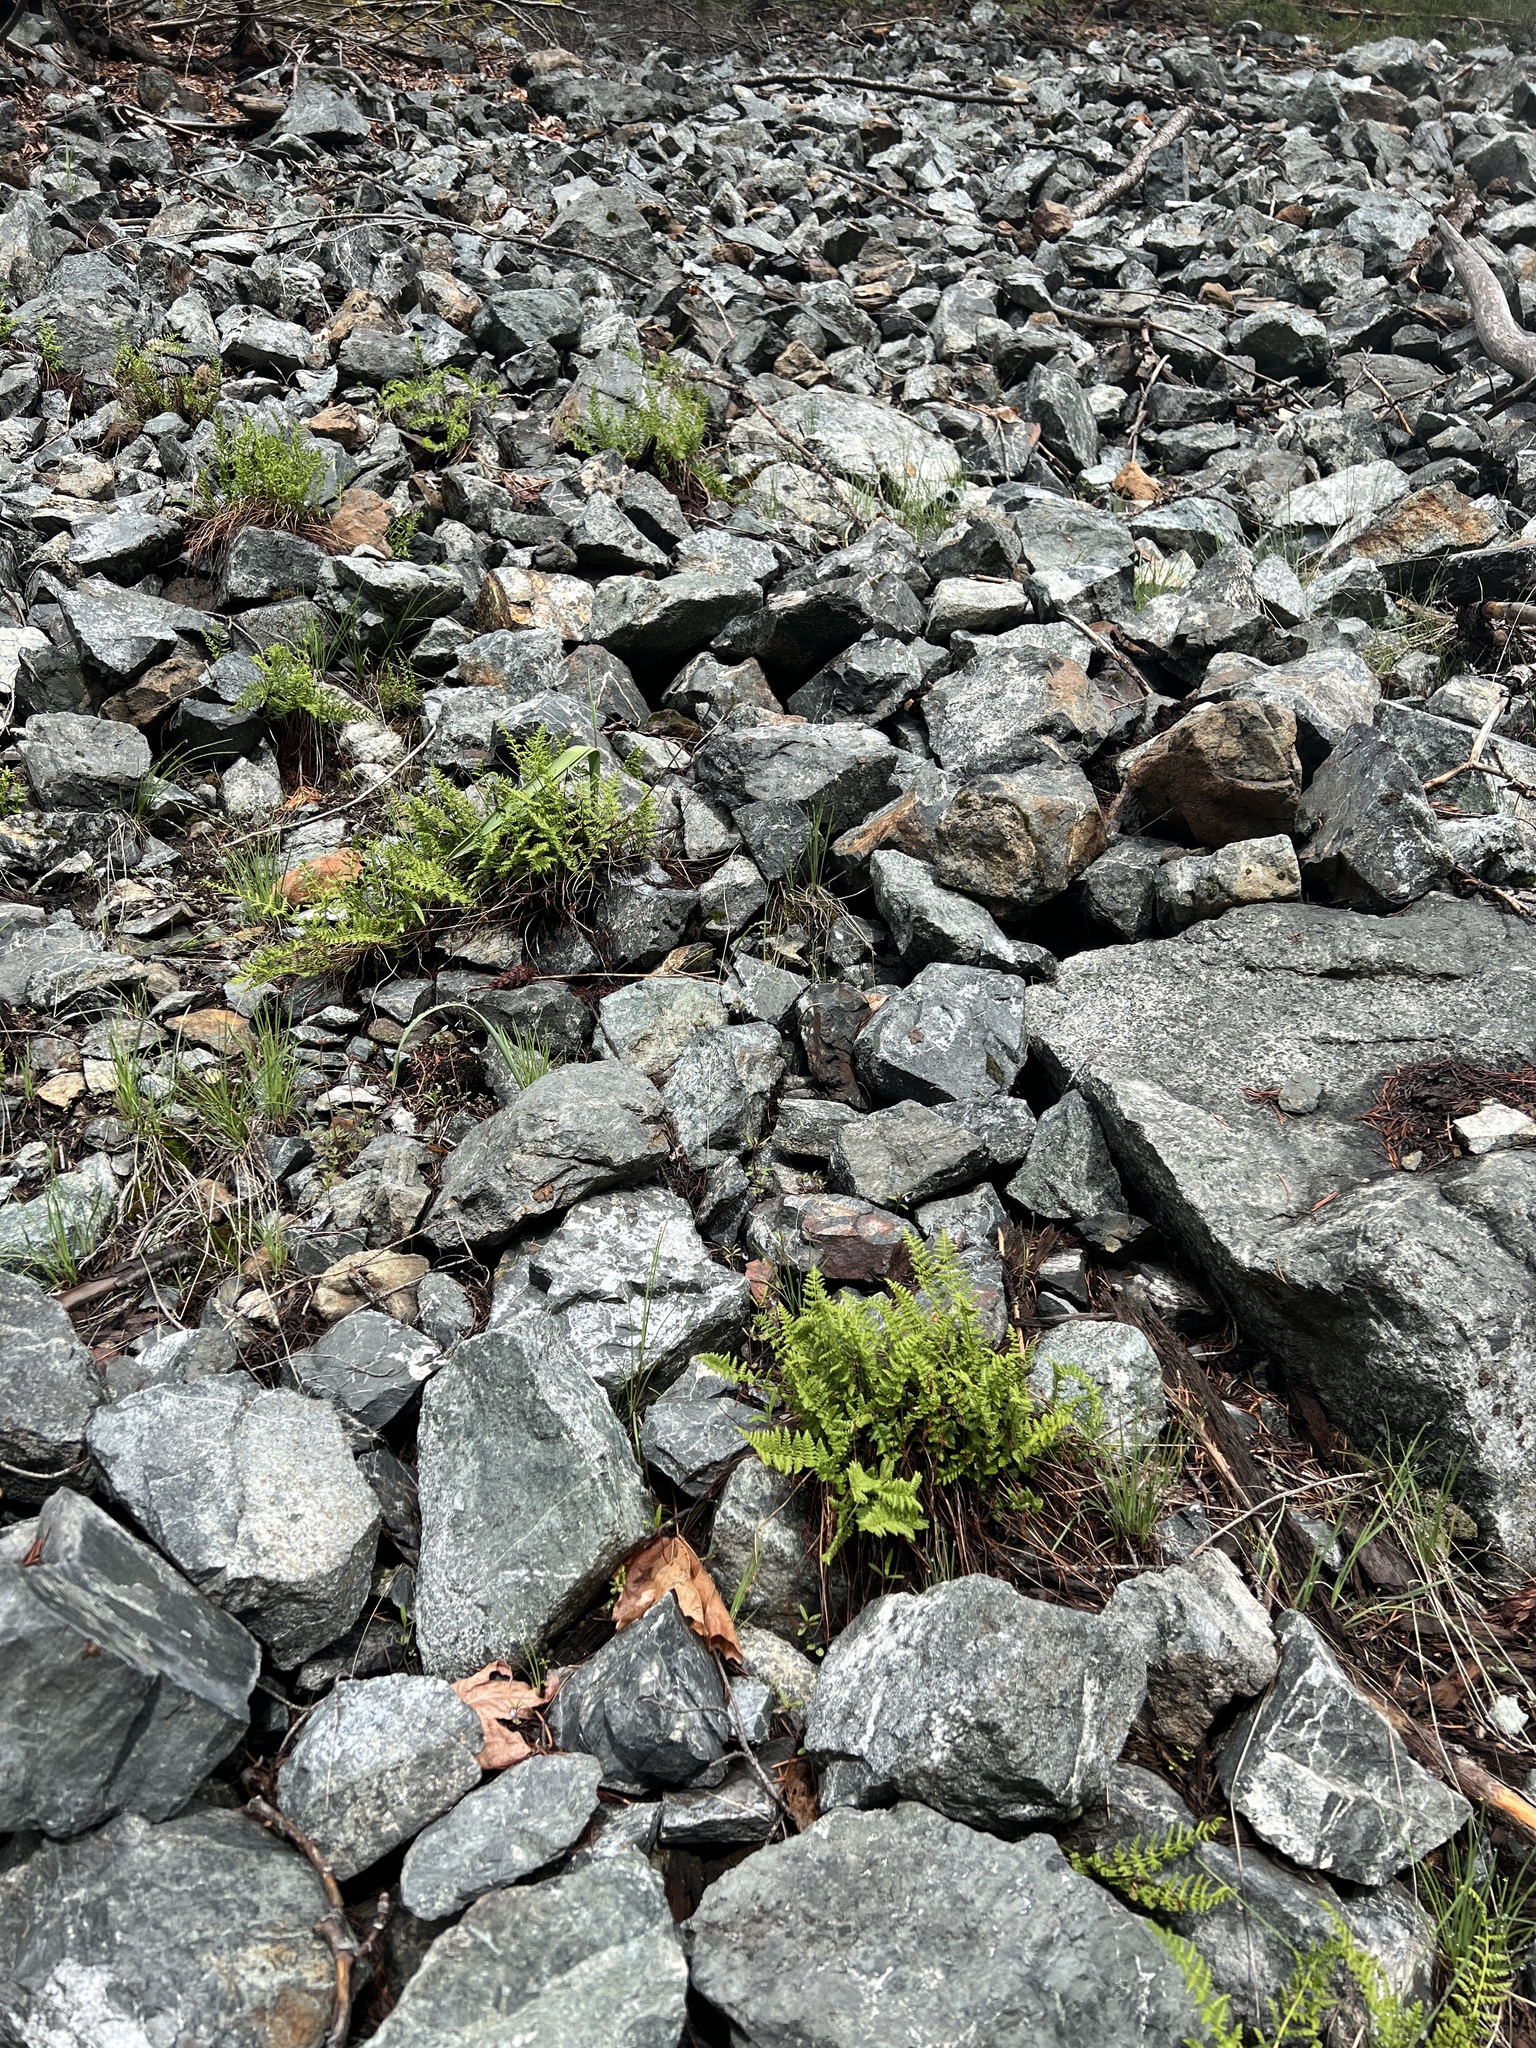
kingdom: Plantae
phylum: Tracheophyta
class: Polypodiopsida
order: Polypodiales
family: Woodsiaceae
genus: Physematium
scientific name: Physematium scopulinum
